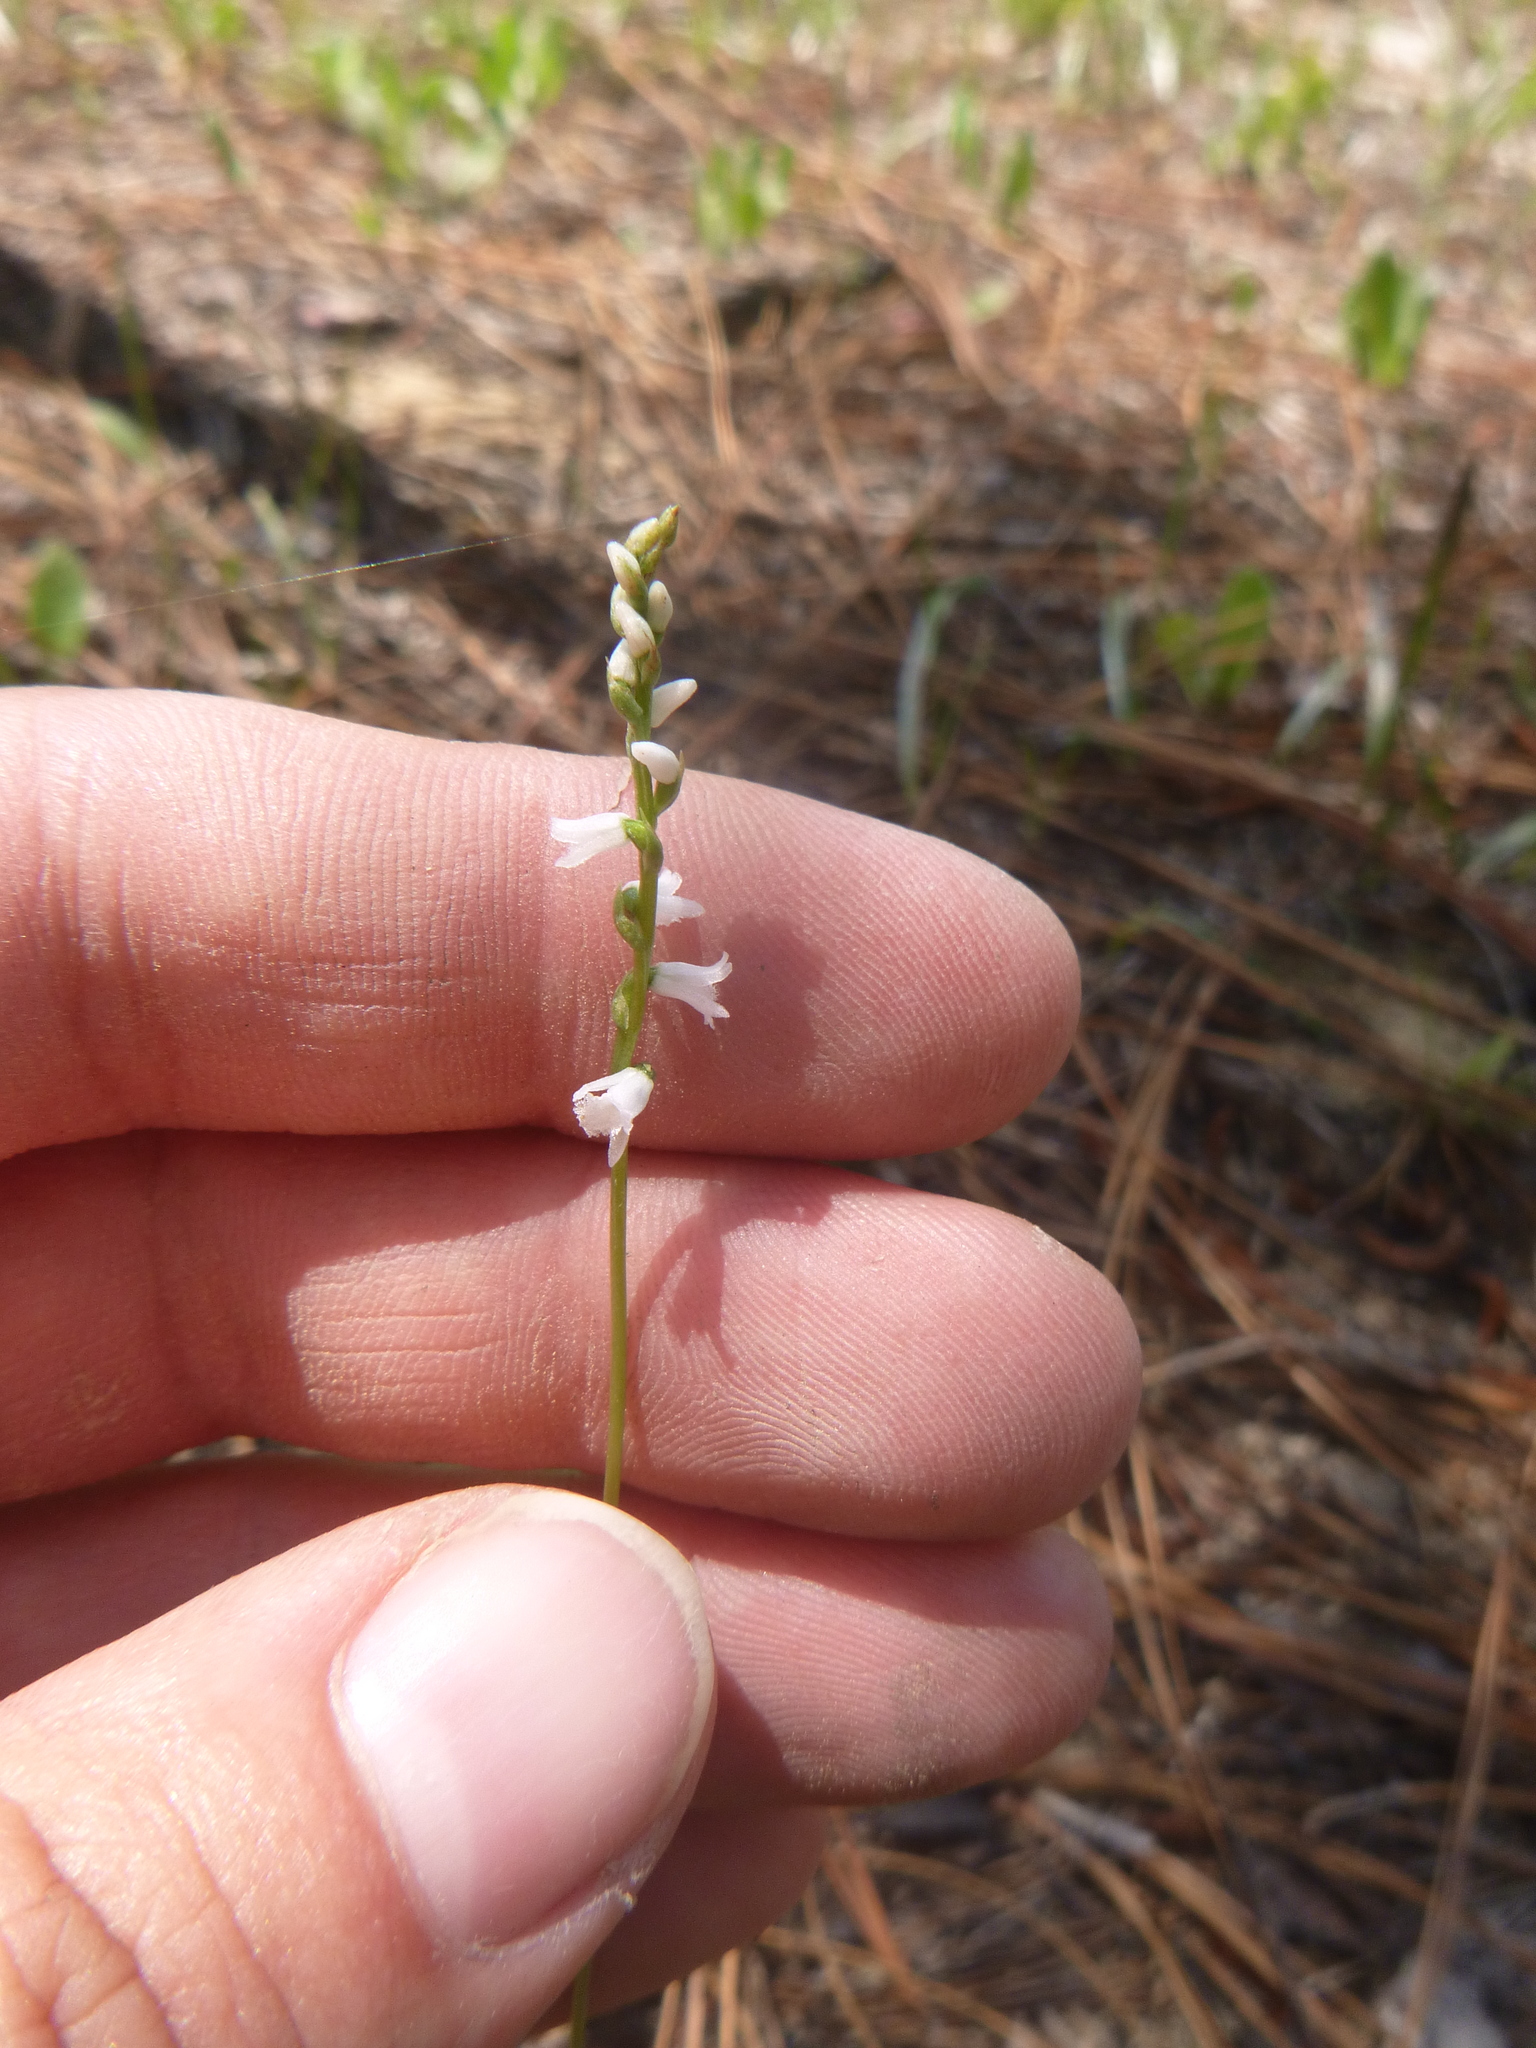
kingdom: Plantae
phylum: Tracheophyta
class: Liliopsida
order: Asparagales
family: Orchidaceae
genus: Spiranthes
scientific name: Spiranthes tuberosa
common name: Little ladies'-tresses
